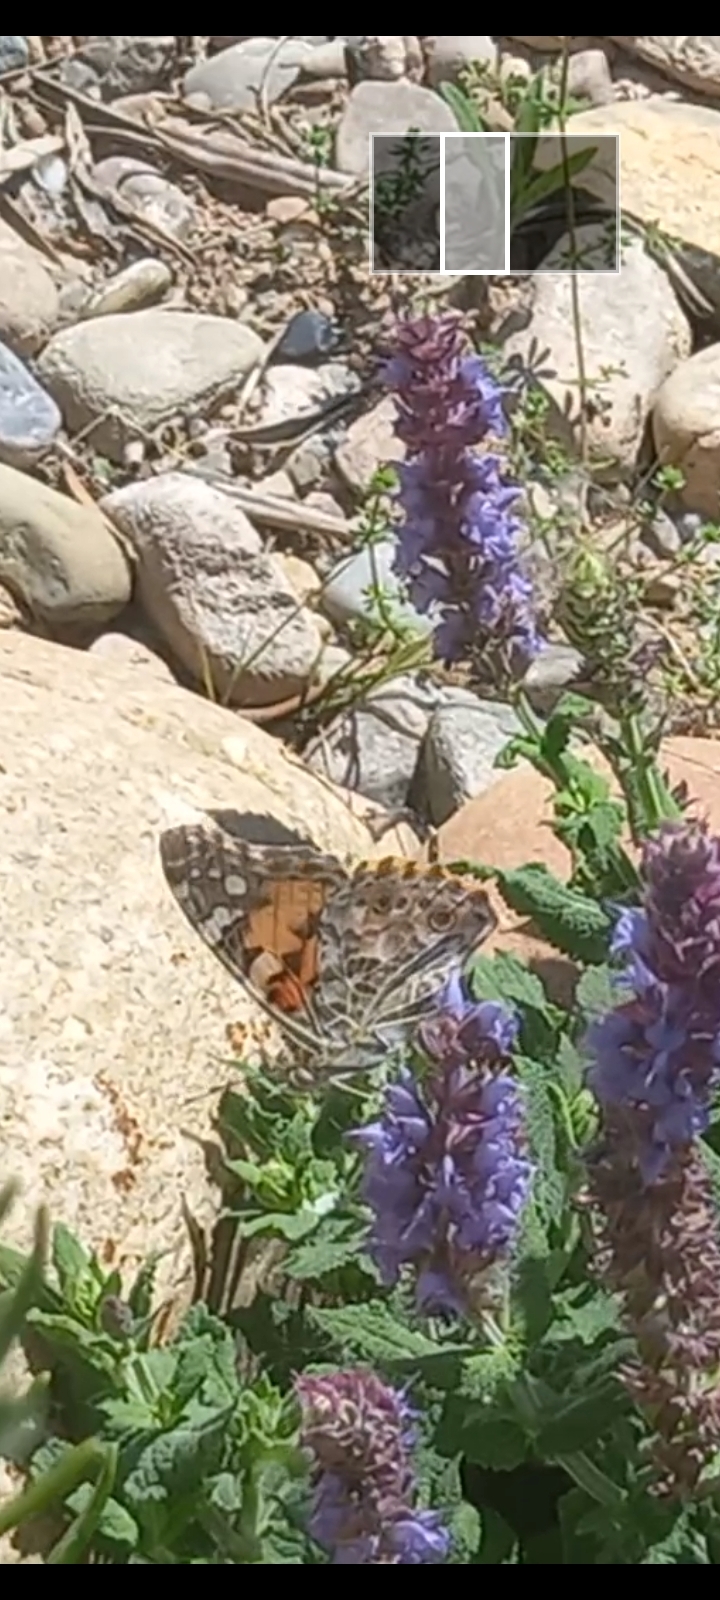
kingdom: Animalia
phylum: Arthropoda
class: Insecta
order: Lepidoptera
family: Nymphalidae
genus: Vanessa
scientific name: Vanessa cardui
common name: Painted lady
